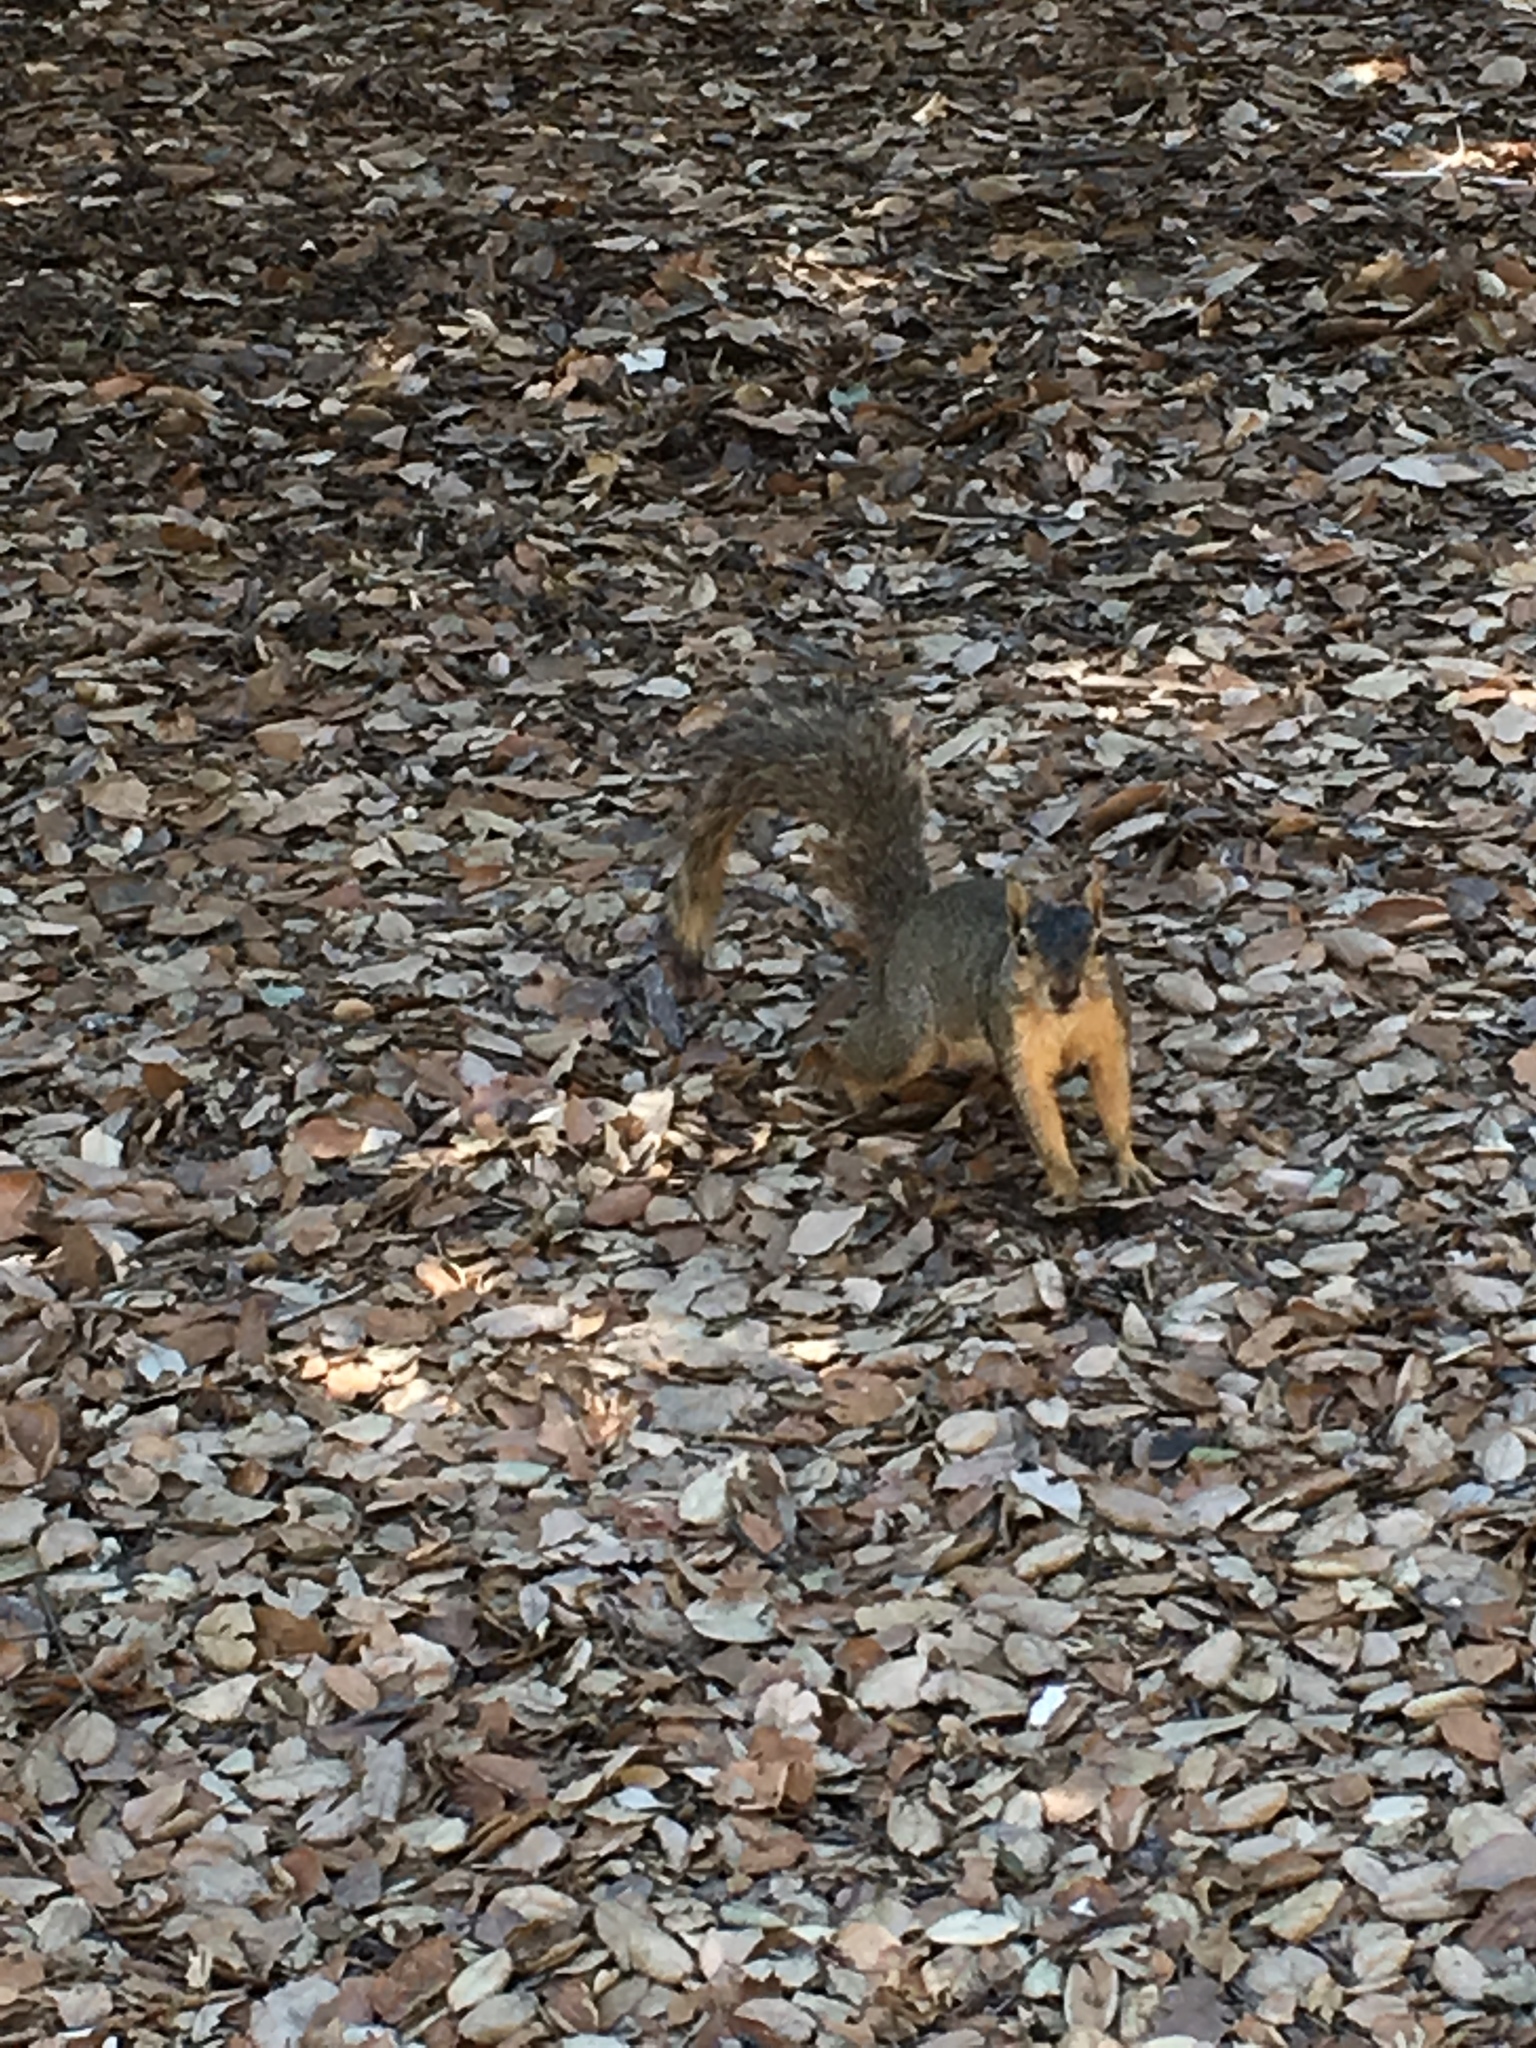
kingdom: Animalia
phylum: Chordata
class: Mammalia
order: Rodentia
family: Sciuridae
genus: Sciurus
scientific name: Sciurus niger
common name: Fox squirrel
